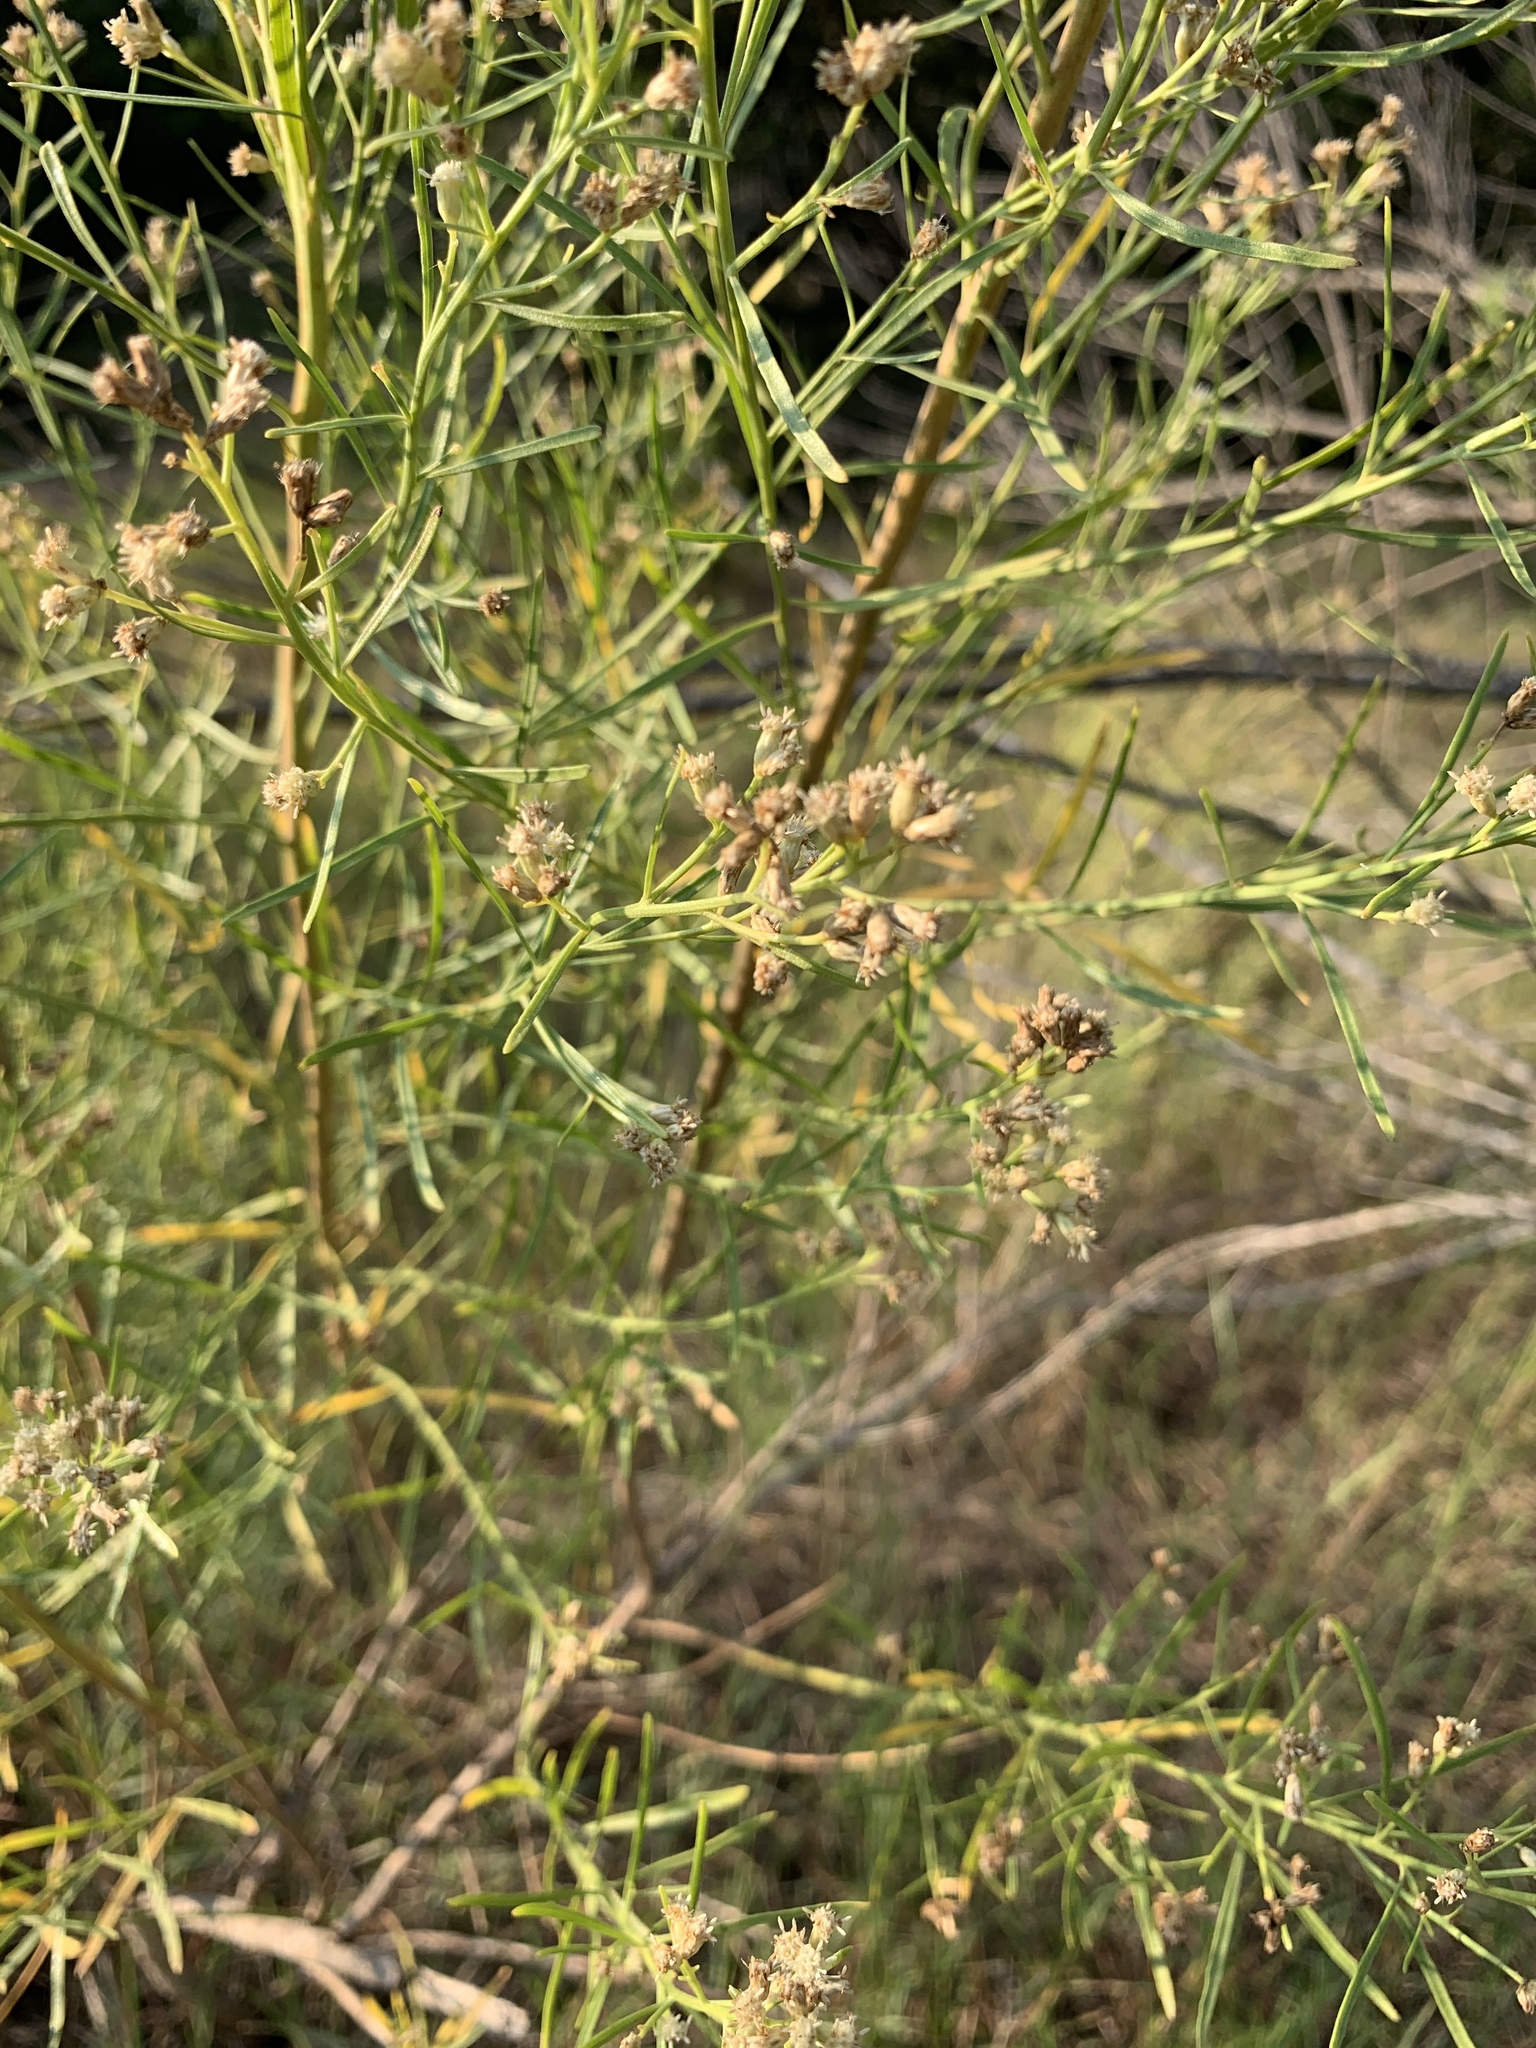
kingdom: Plantae
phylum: Tracheophyta
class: Magnoliopsida
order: Asterales
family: Asteraceae
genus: Baccharis
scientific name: Baccharis neglecta
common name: Roosevelt-weed
